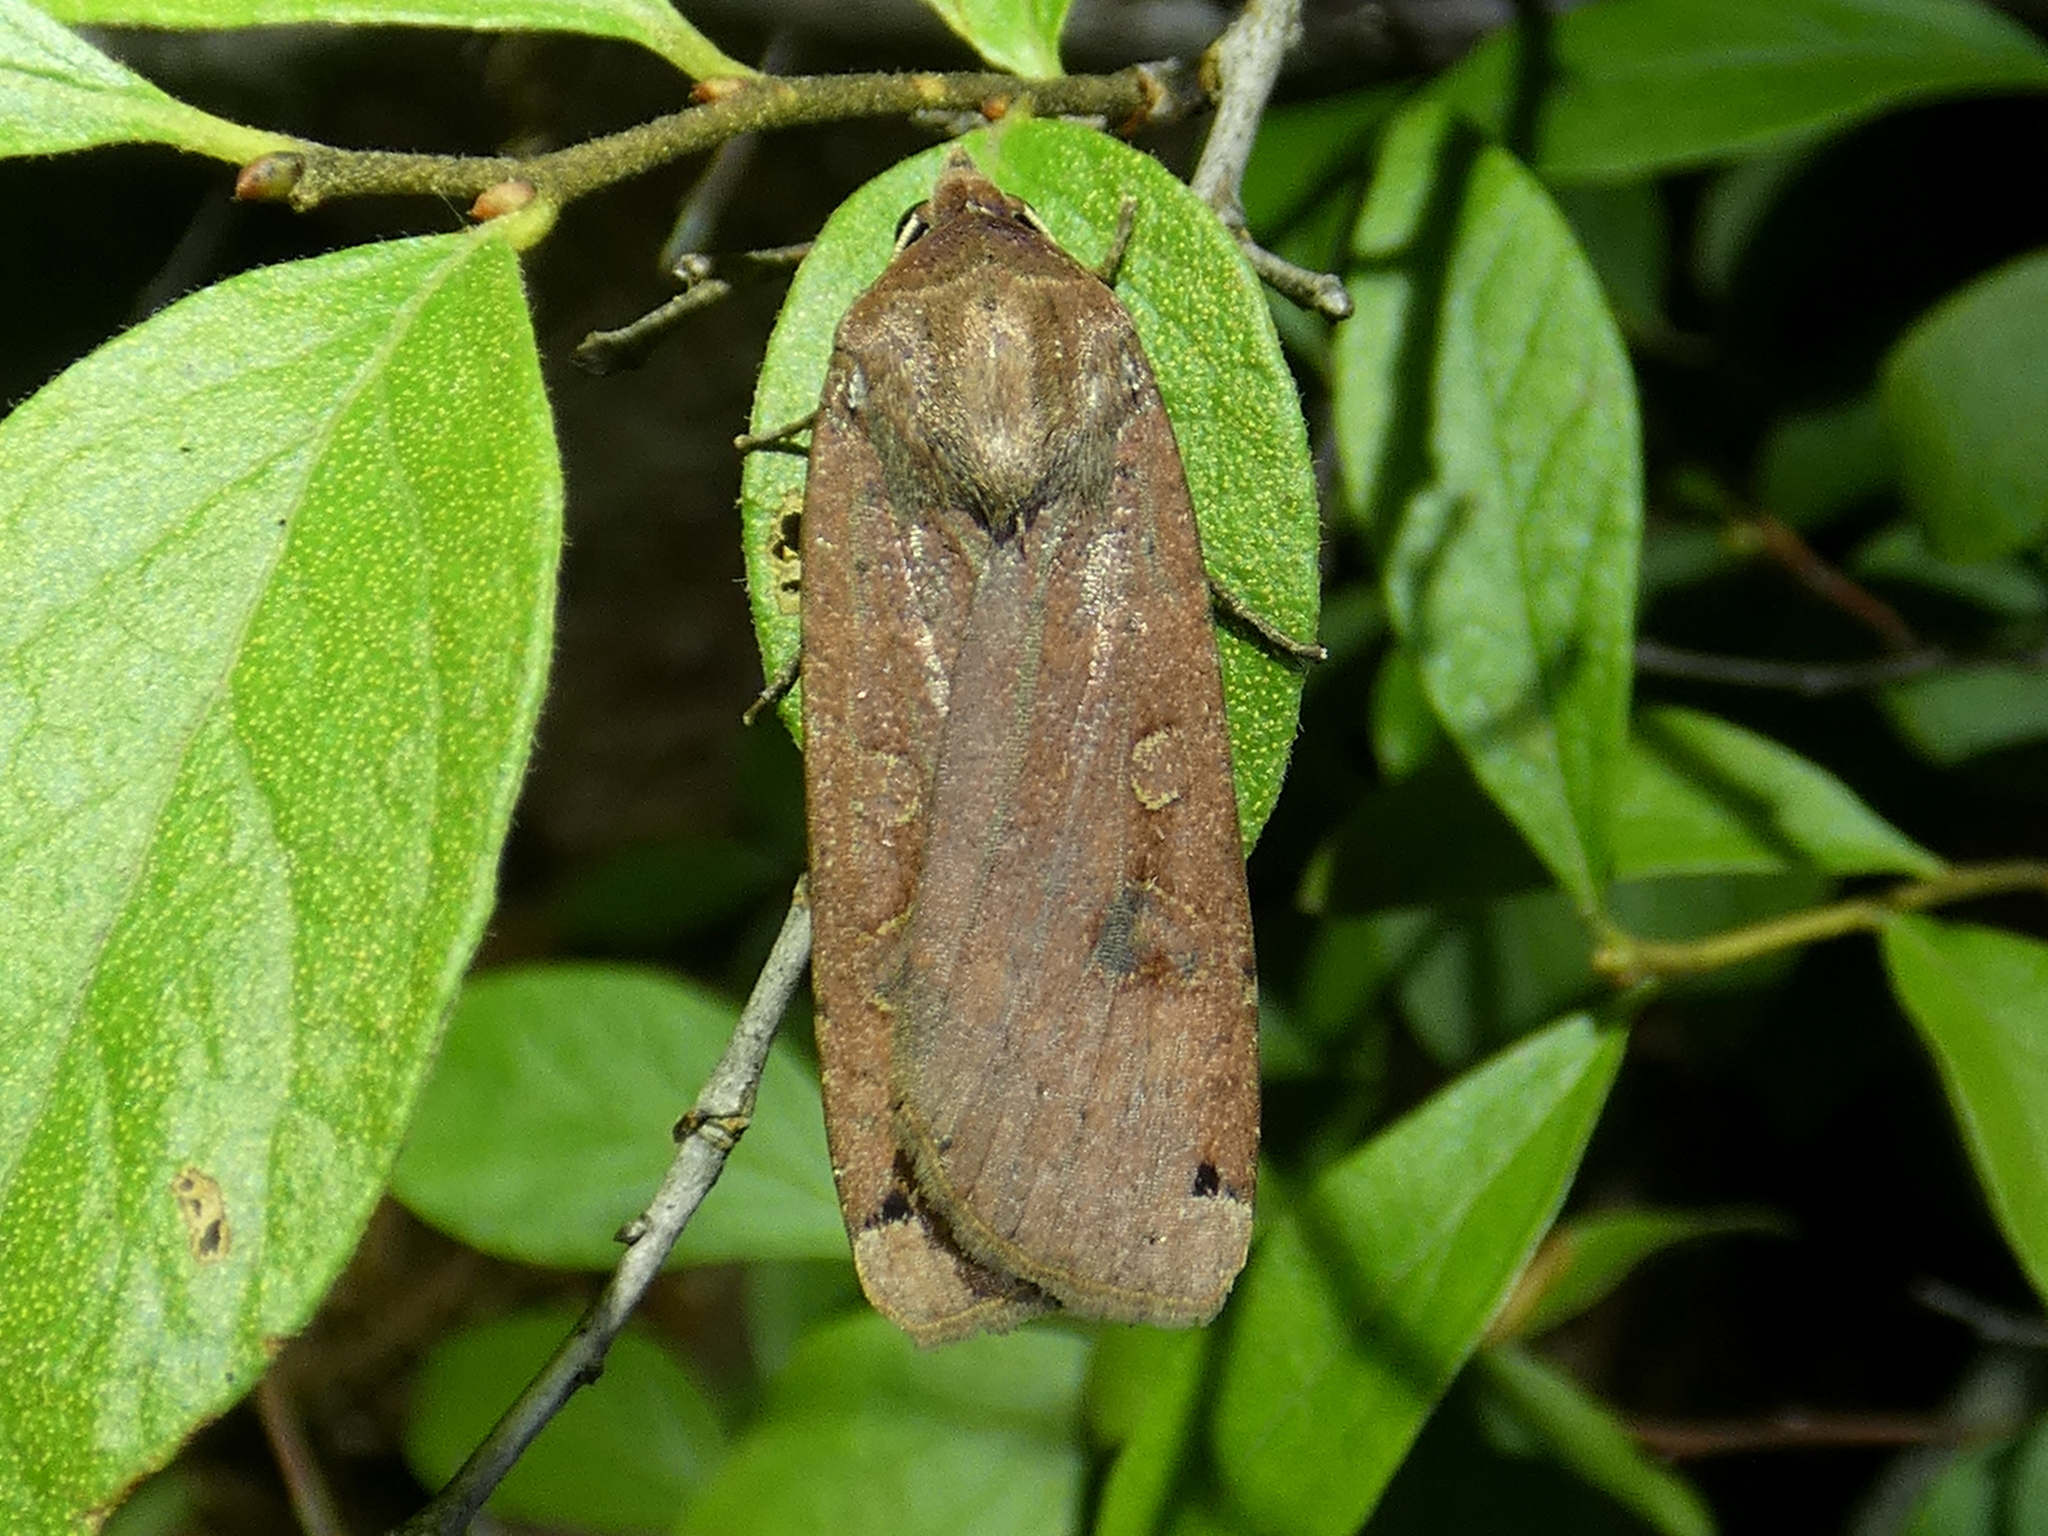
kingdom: Animalia
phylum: Arthropoda
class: Insecta
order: Lepidoptera
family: Noctuidae
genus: Noctua
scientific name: Noctua pronuba
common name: Large yellow underwing
